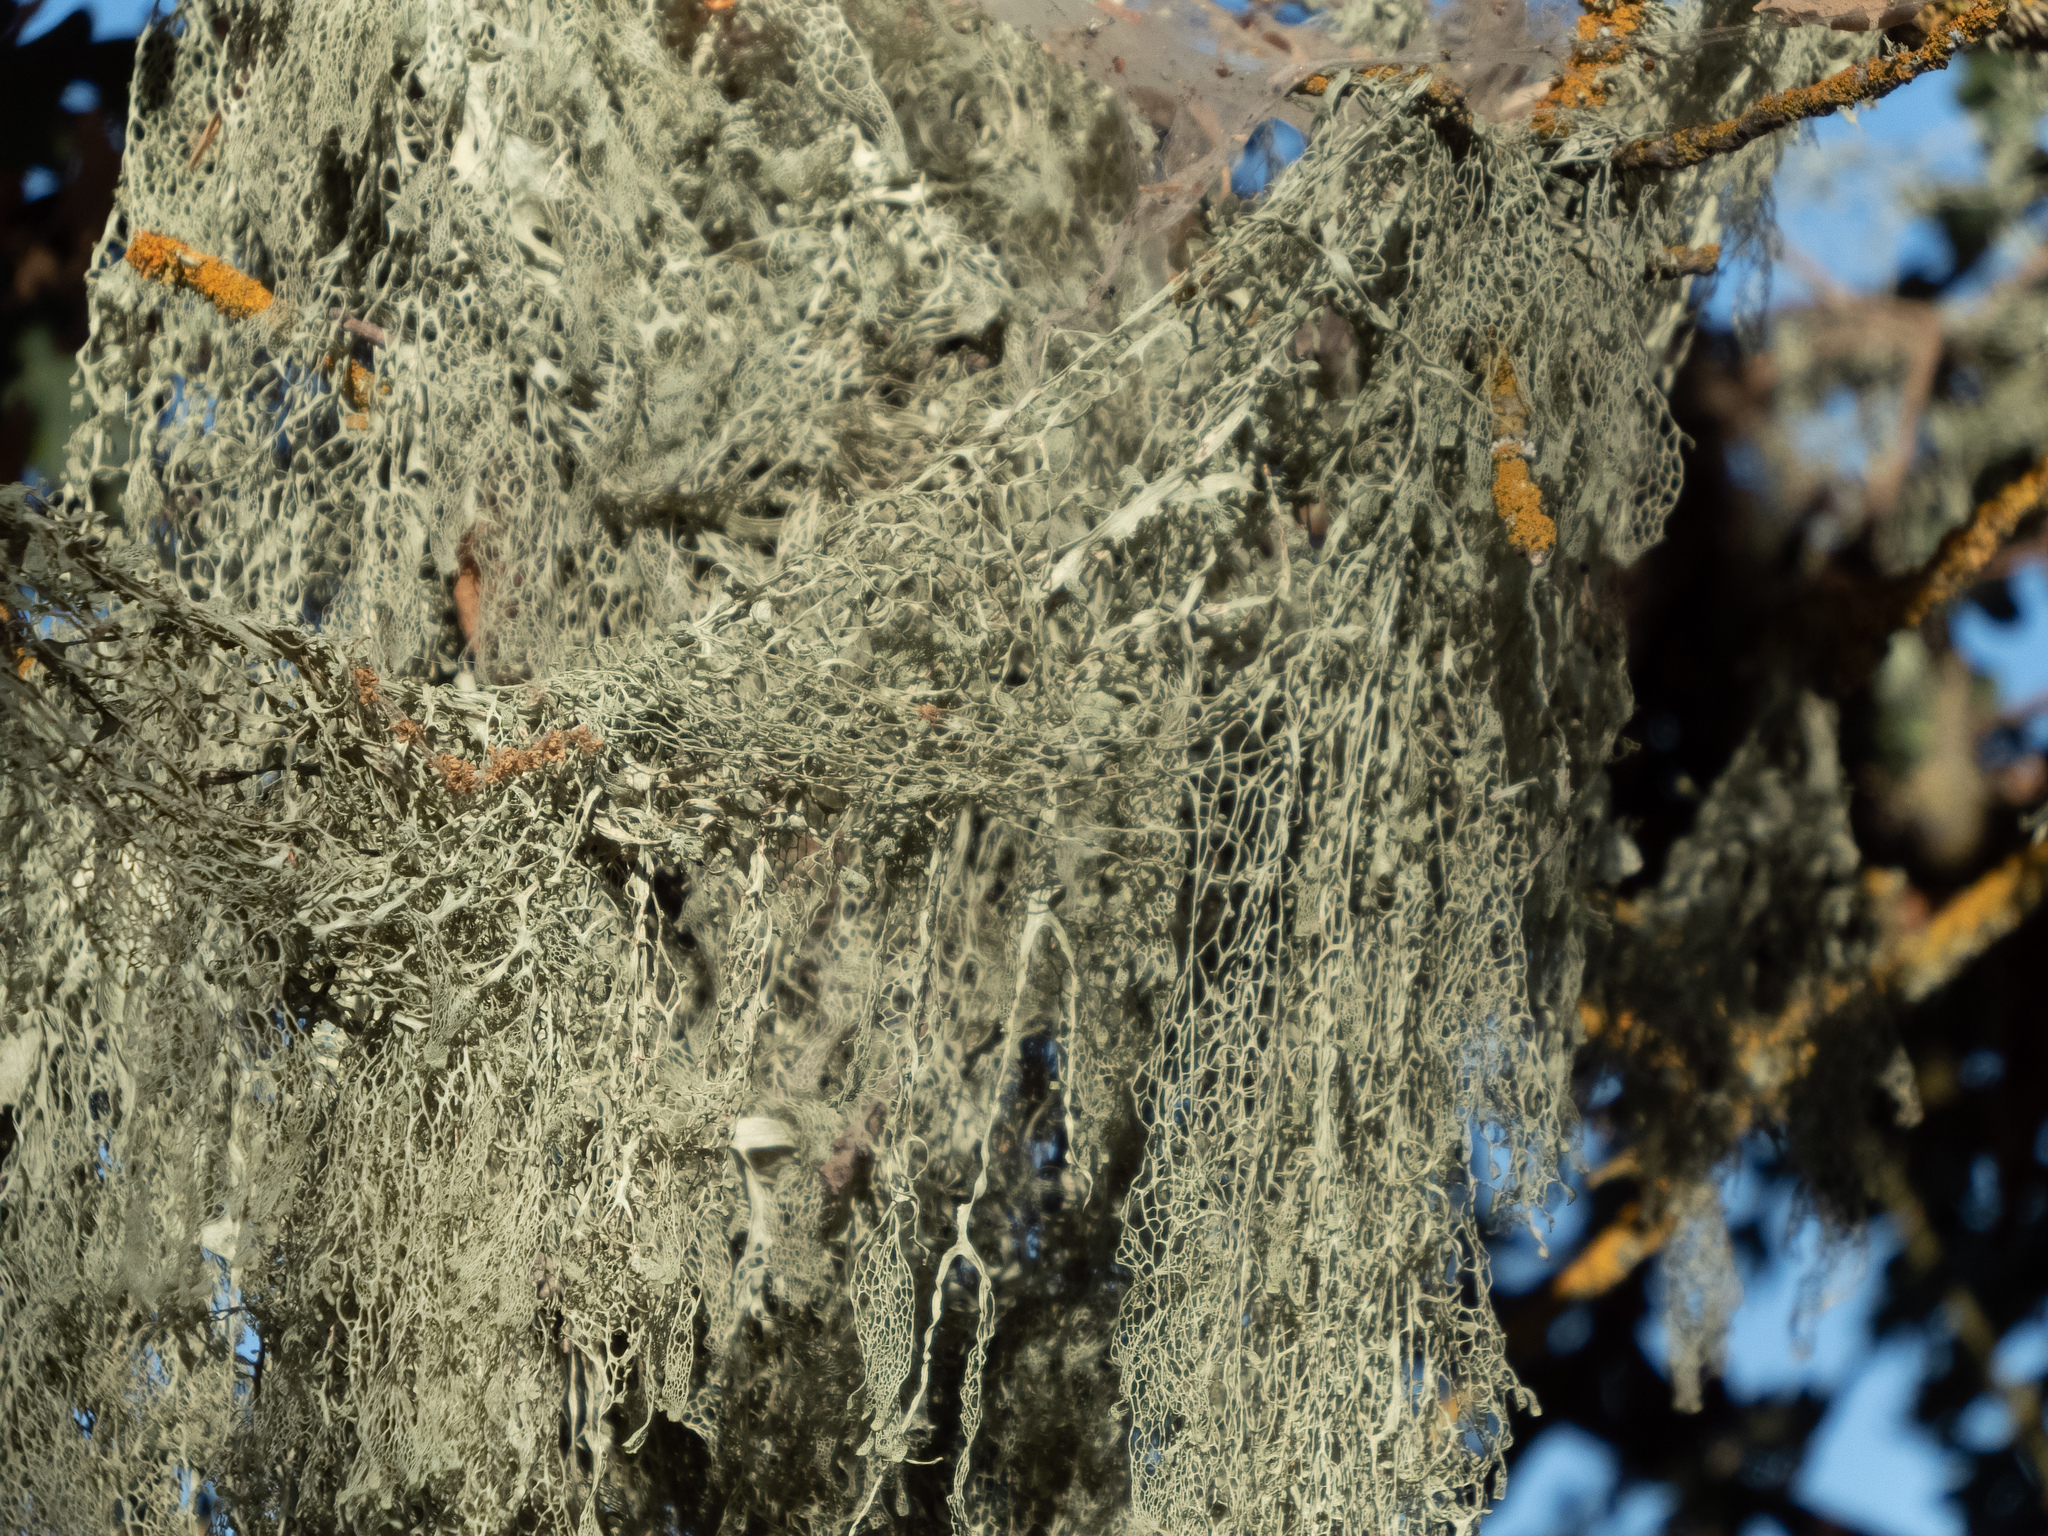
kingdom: Fungi
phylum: Ascomycota
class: Lecanoromycetes
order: Lecanorales
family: Ramalinaceae
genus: Ramalina
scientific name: Ramalina menziesii
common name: Lace lichen
